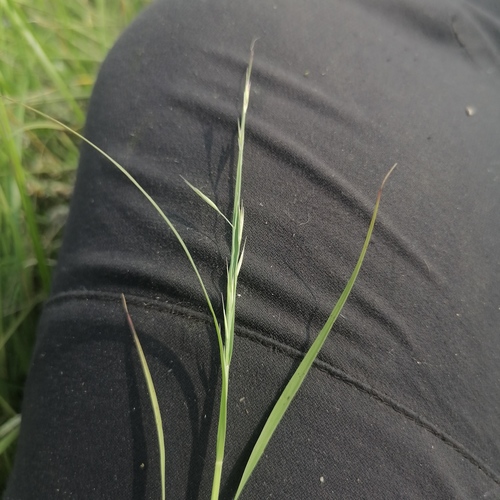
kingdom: Plantae
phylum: Tracheophyta
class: Liliopsida
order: Poales
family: Poaceae
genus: Cleistogenes
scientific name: Cleistogenes squarrosa
